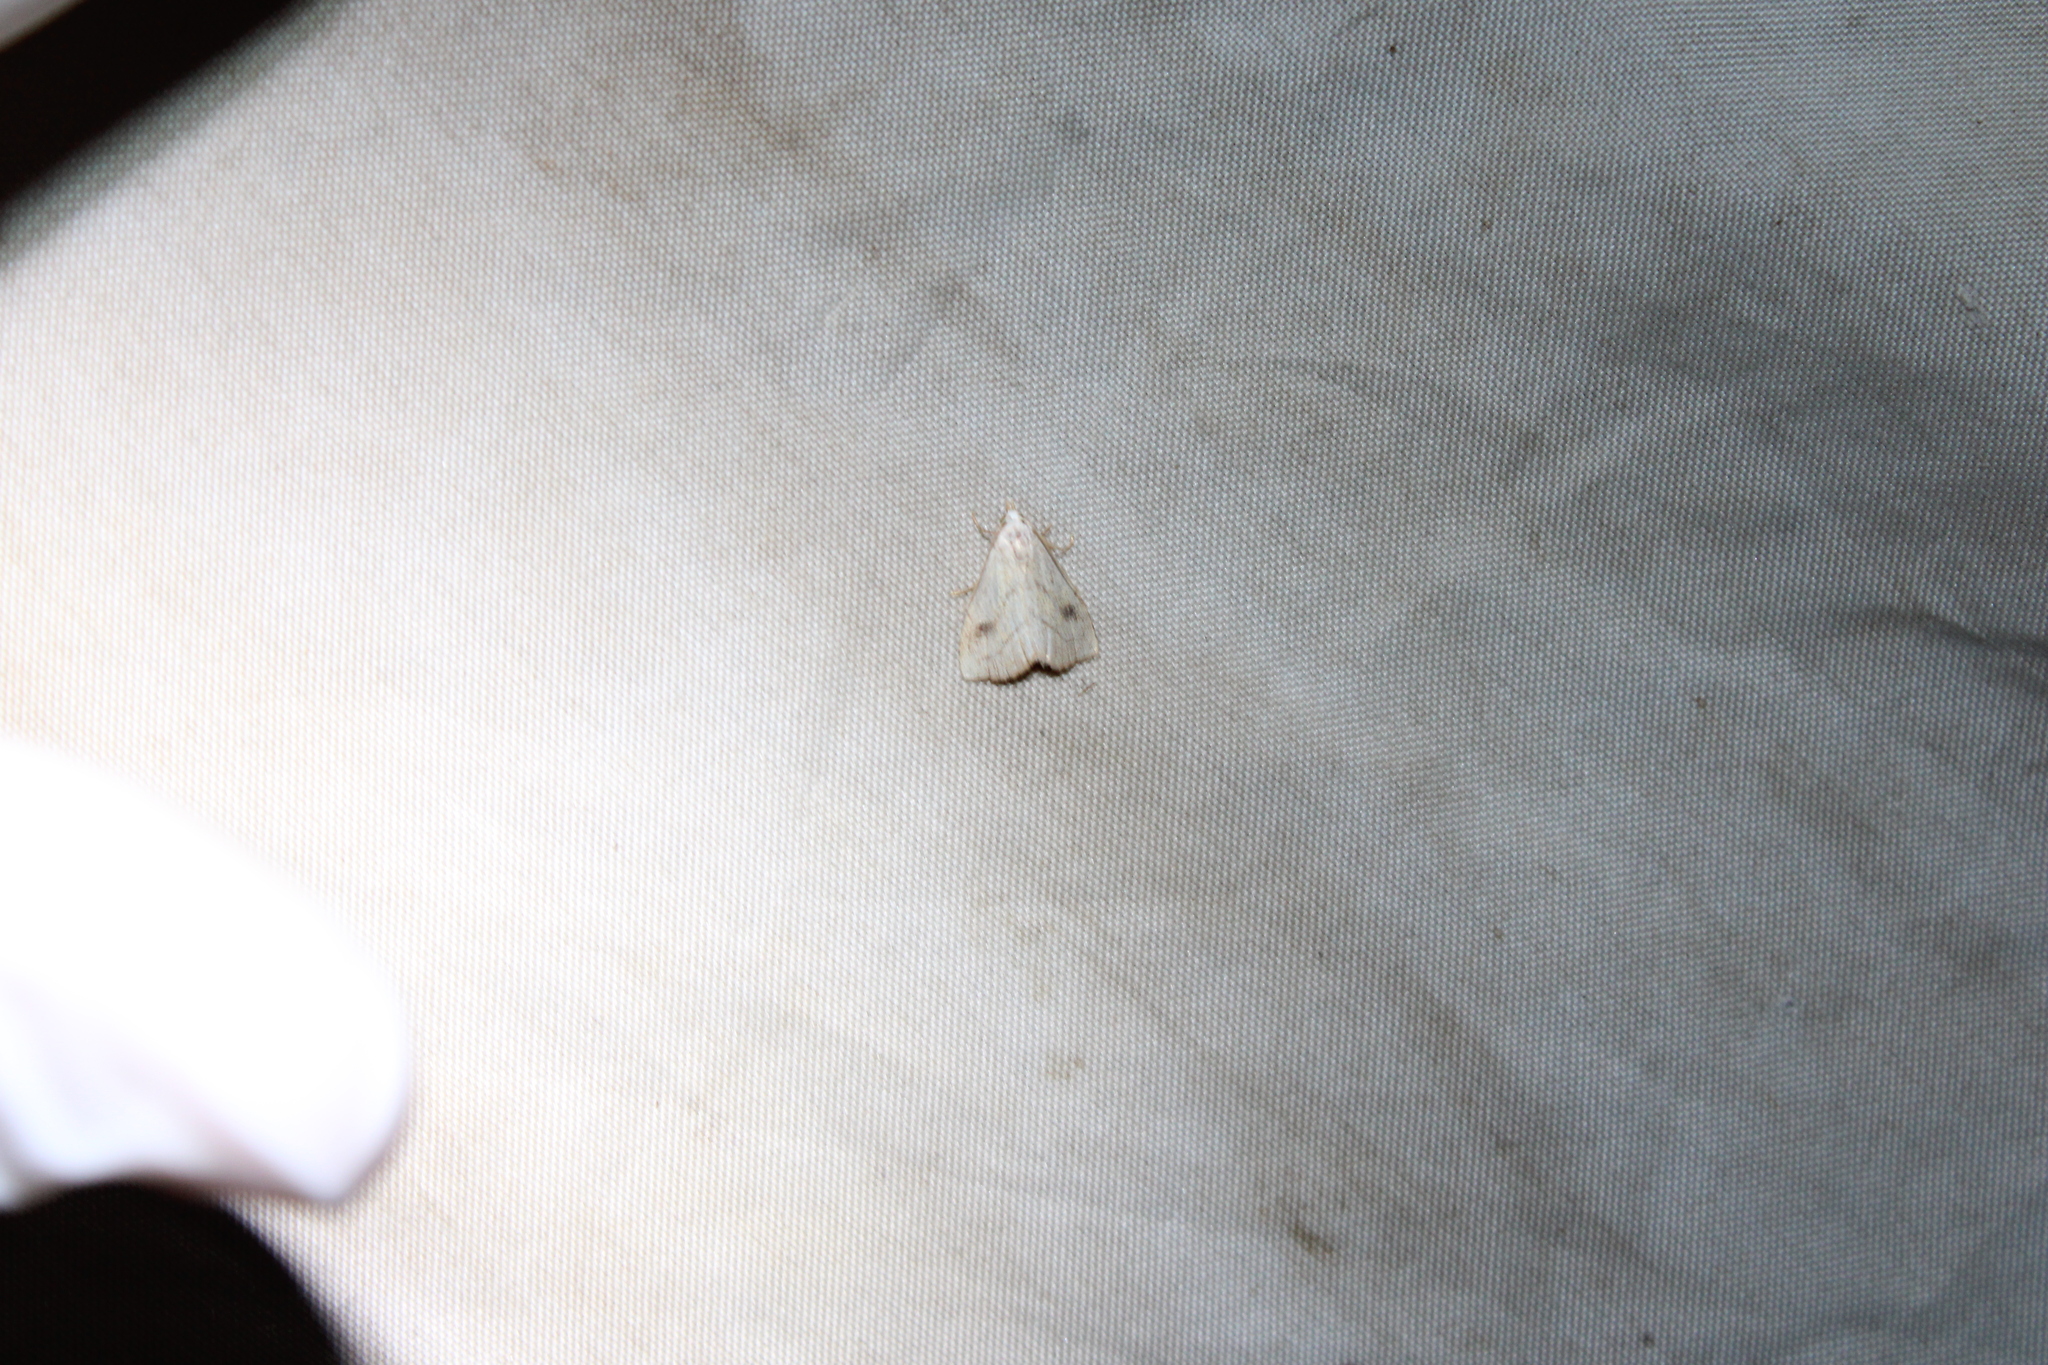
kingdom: Animalia
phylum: Arthropoda
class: Insecta
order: Lepidoptera
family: Erebidae
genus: Rivula
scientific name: Rivula propinqualis
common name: Spotted grass moth
